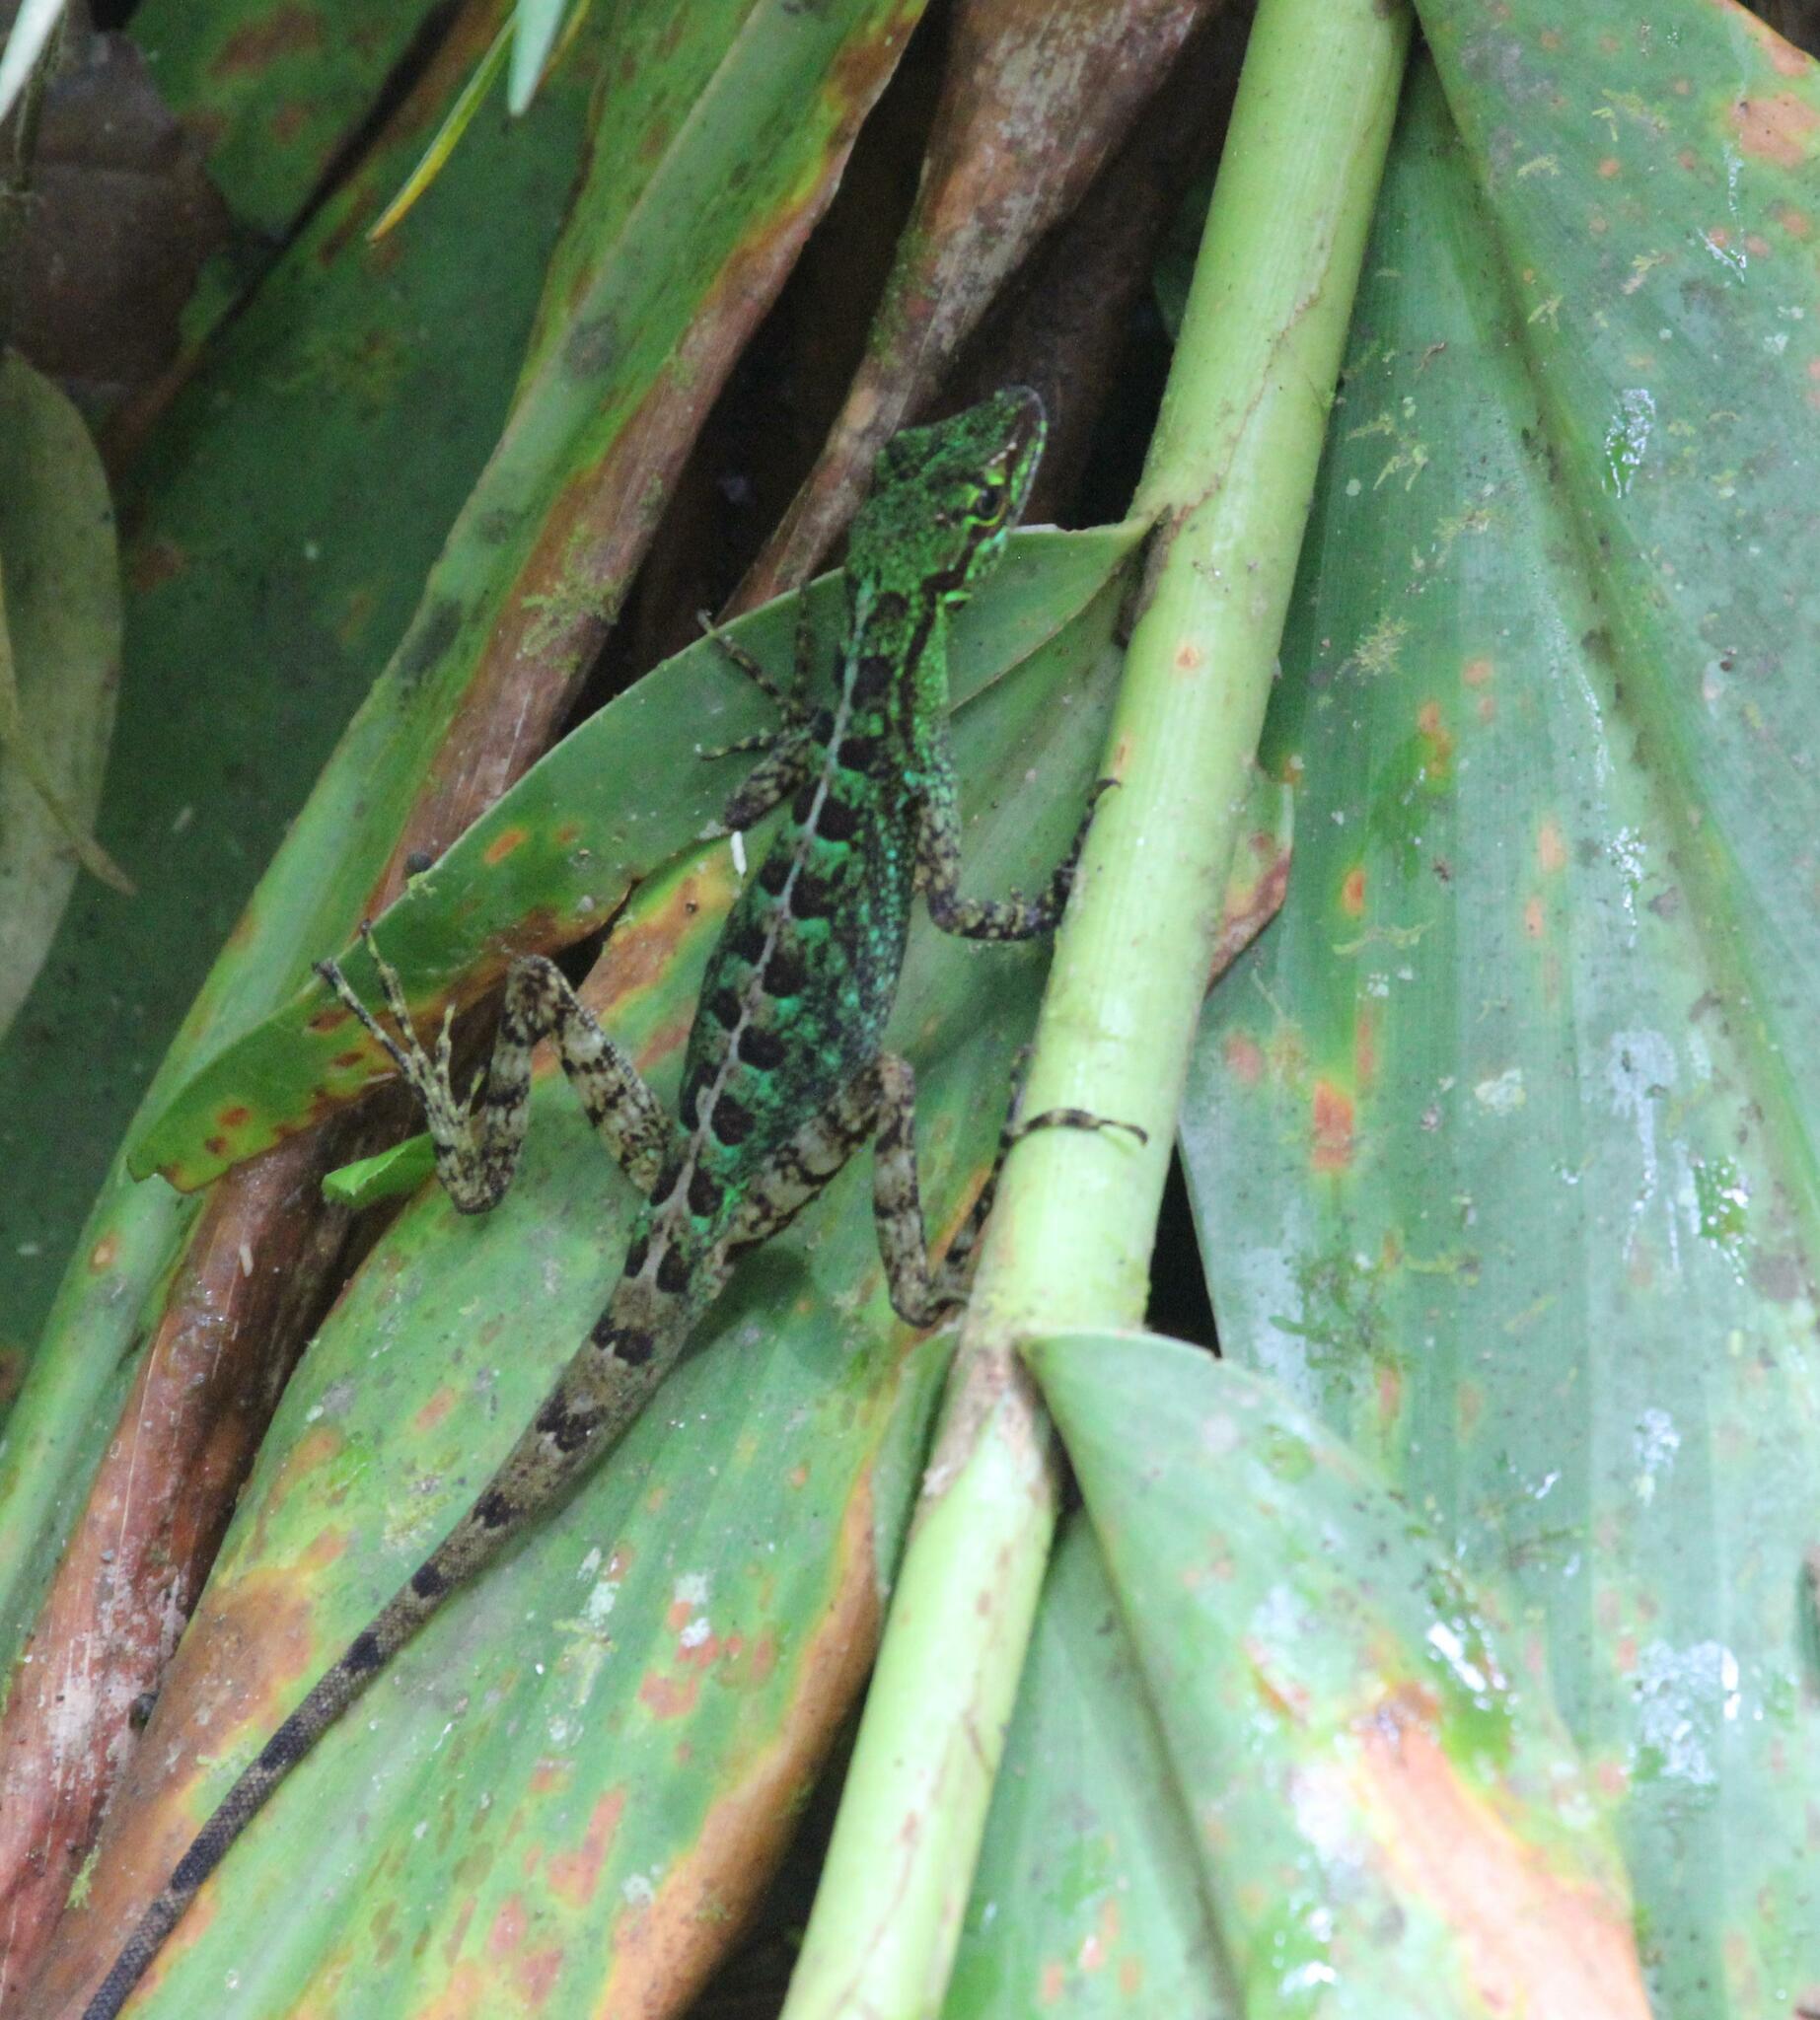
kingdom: Animalia
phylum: Chordata
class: Squamata
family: Dactyloidae
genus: Anolis
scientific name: Anolis ventrimaculatus
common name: Speckled anole
